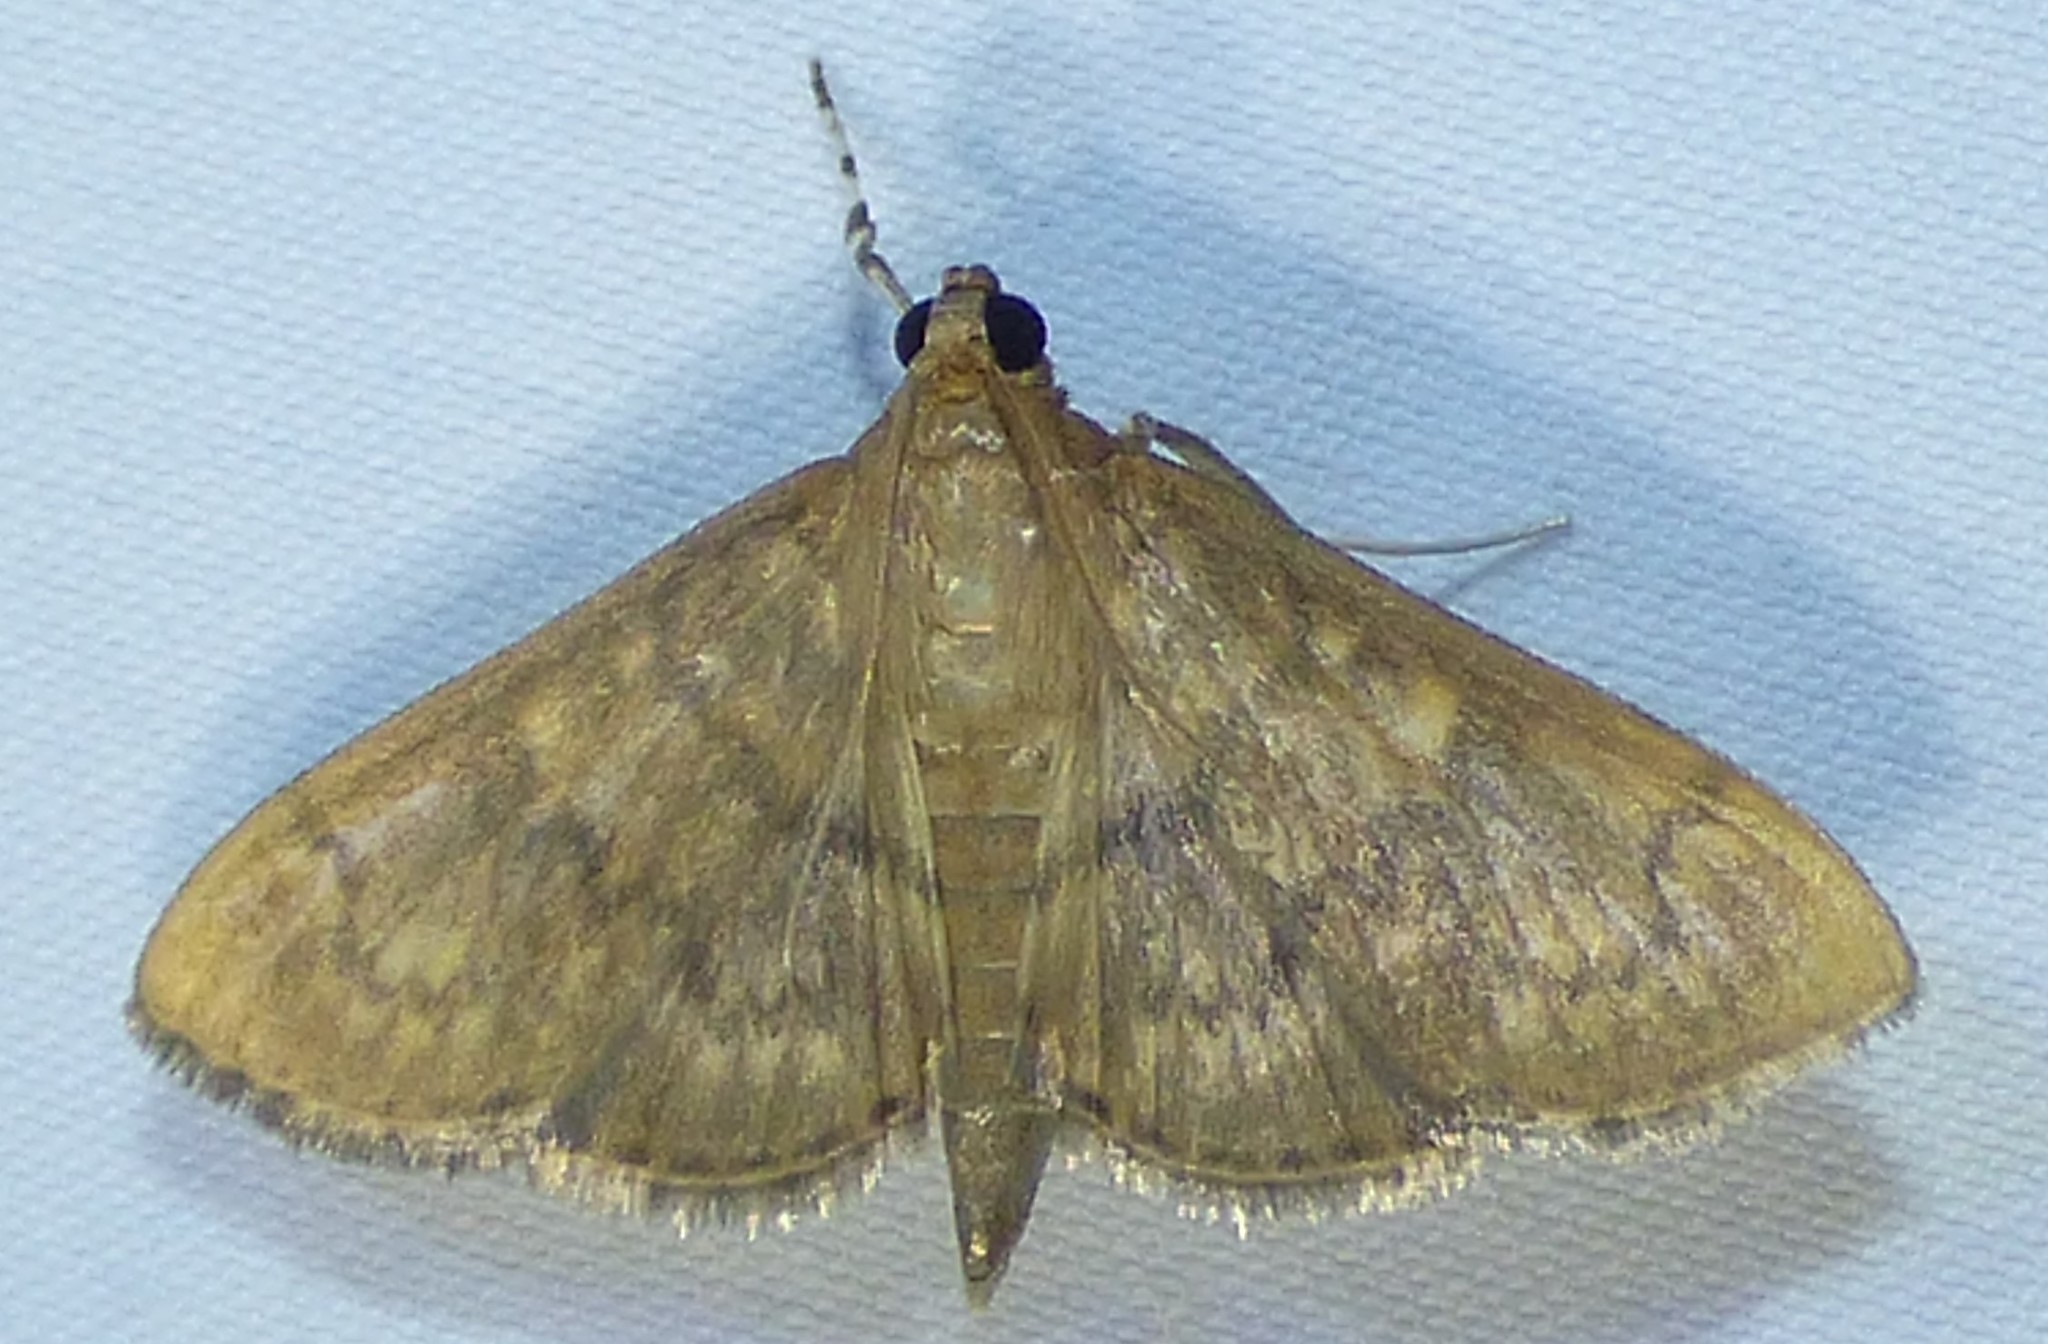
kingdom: Animalia
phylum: Arthropoda
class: Insecta
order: Lepidoptera
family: Crambidae
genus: Syllepte
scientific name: Syllepte obscuralis
